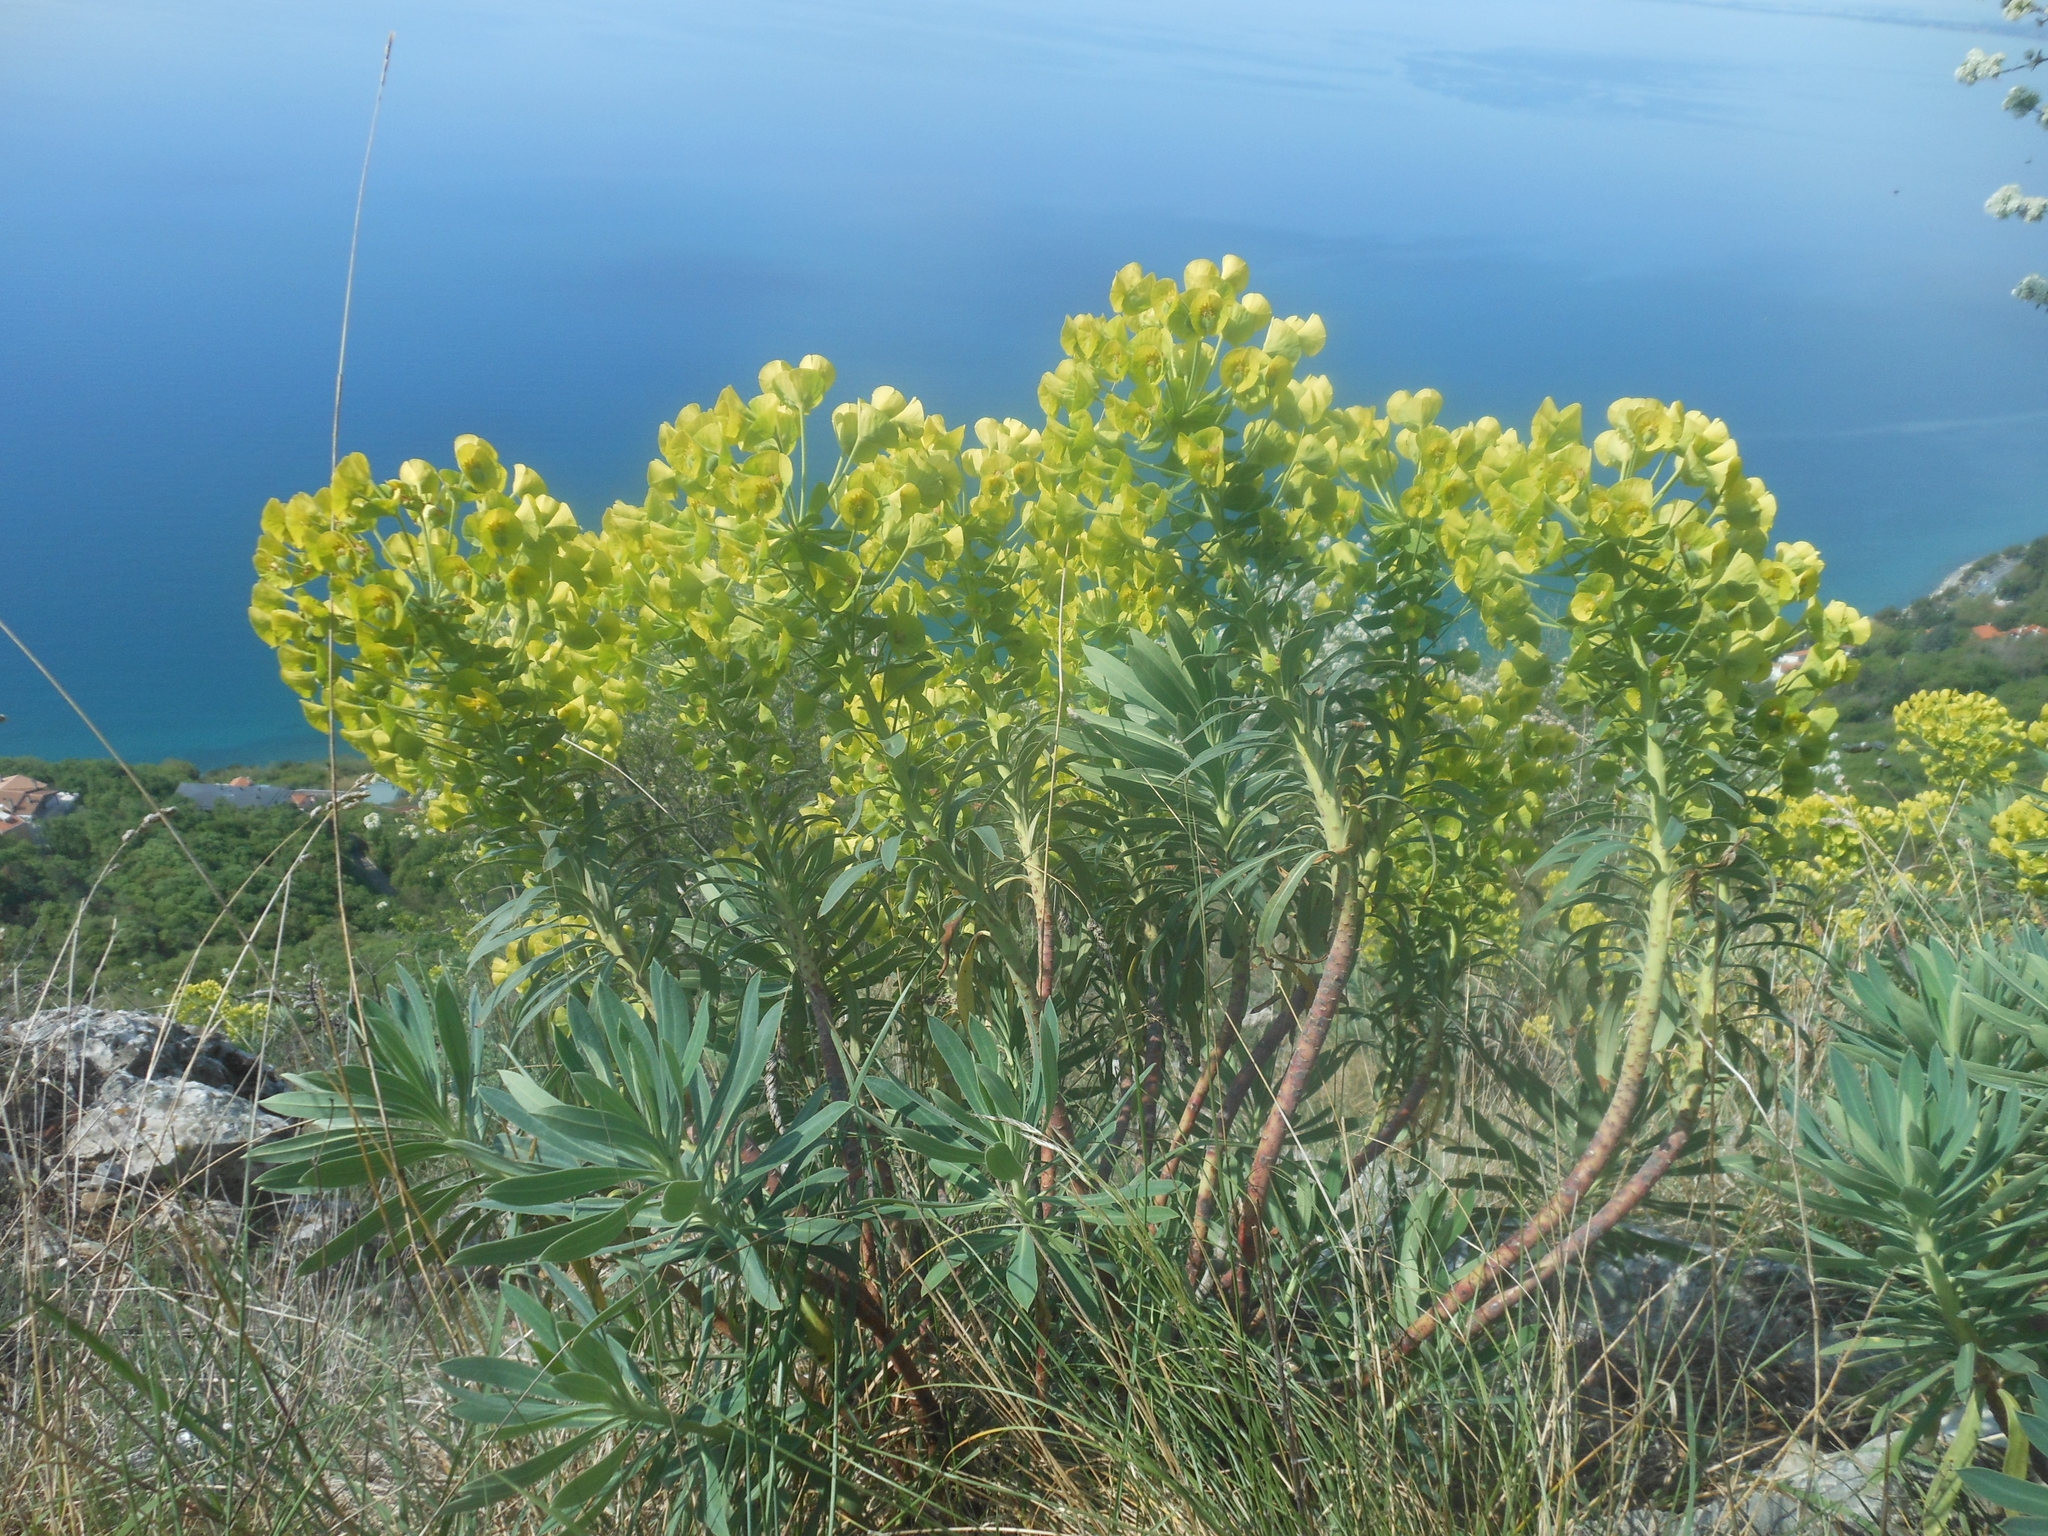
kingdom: Plantae
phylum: Tracheophyta
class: Magnoliopsida
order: Malpighiales
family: Euphorbiaceae
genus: Euphorbia
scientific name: Euphorbia characias
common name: Mediterranean spurge
